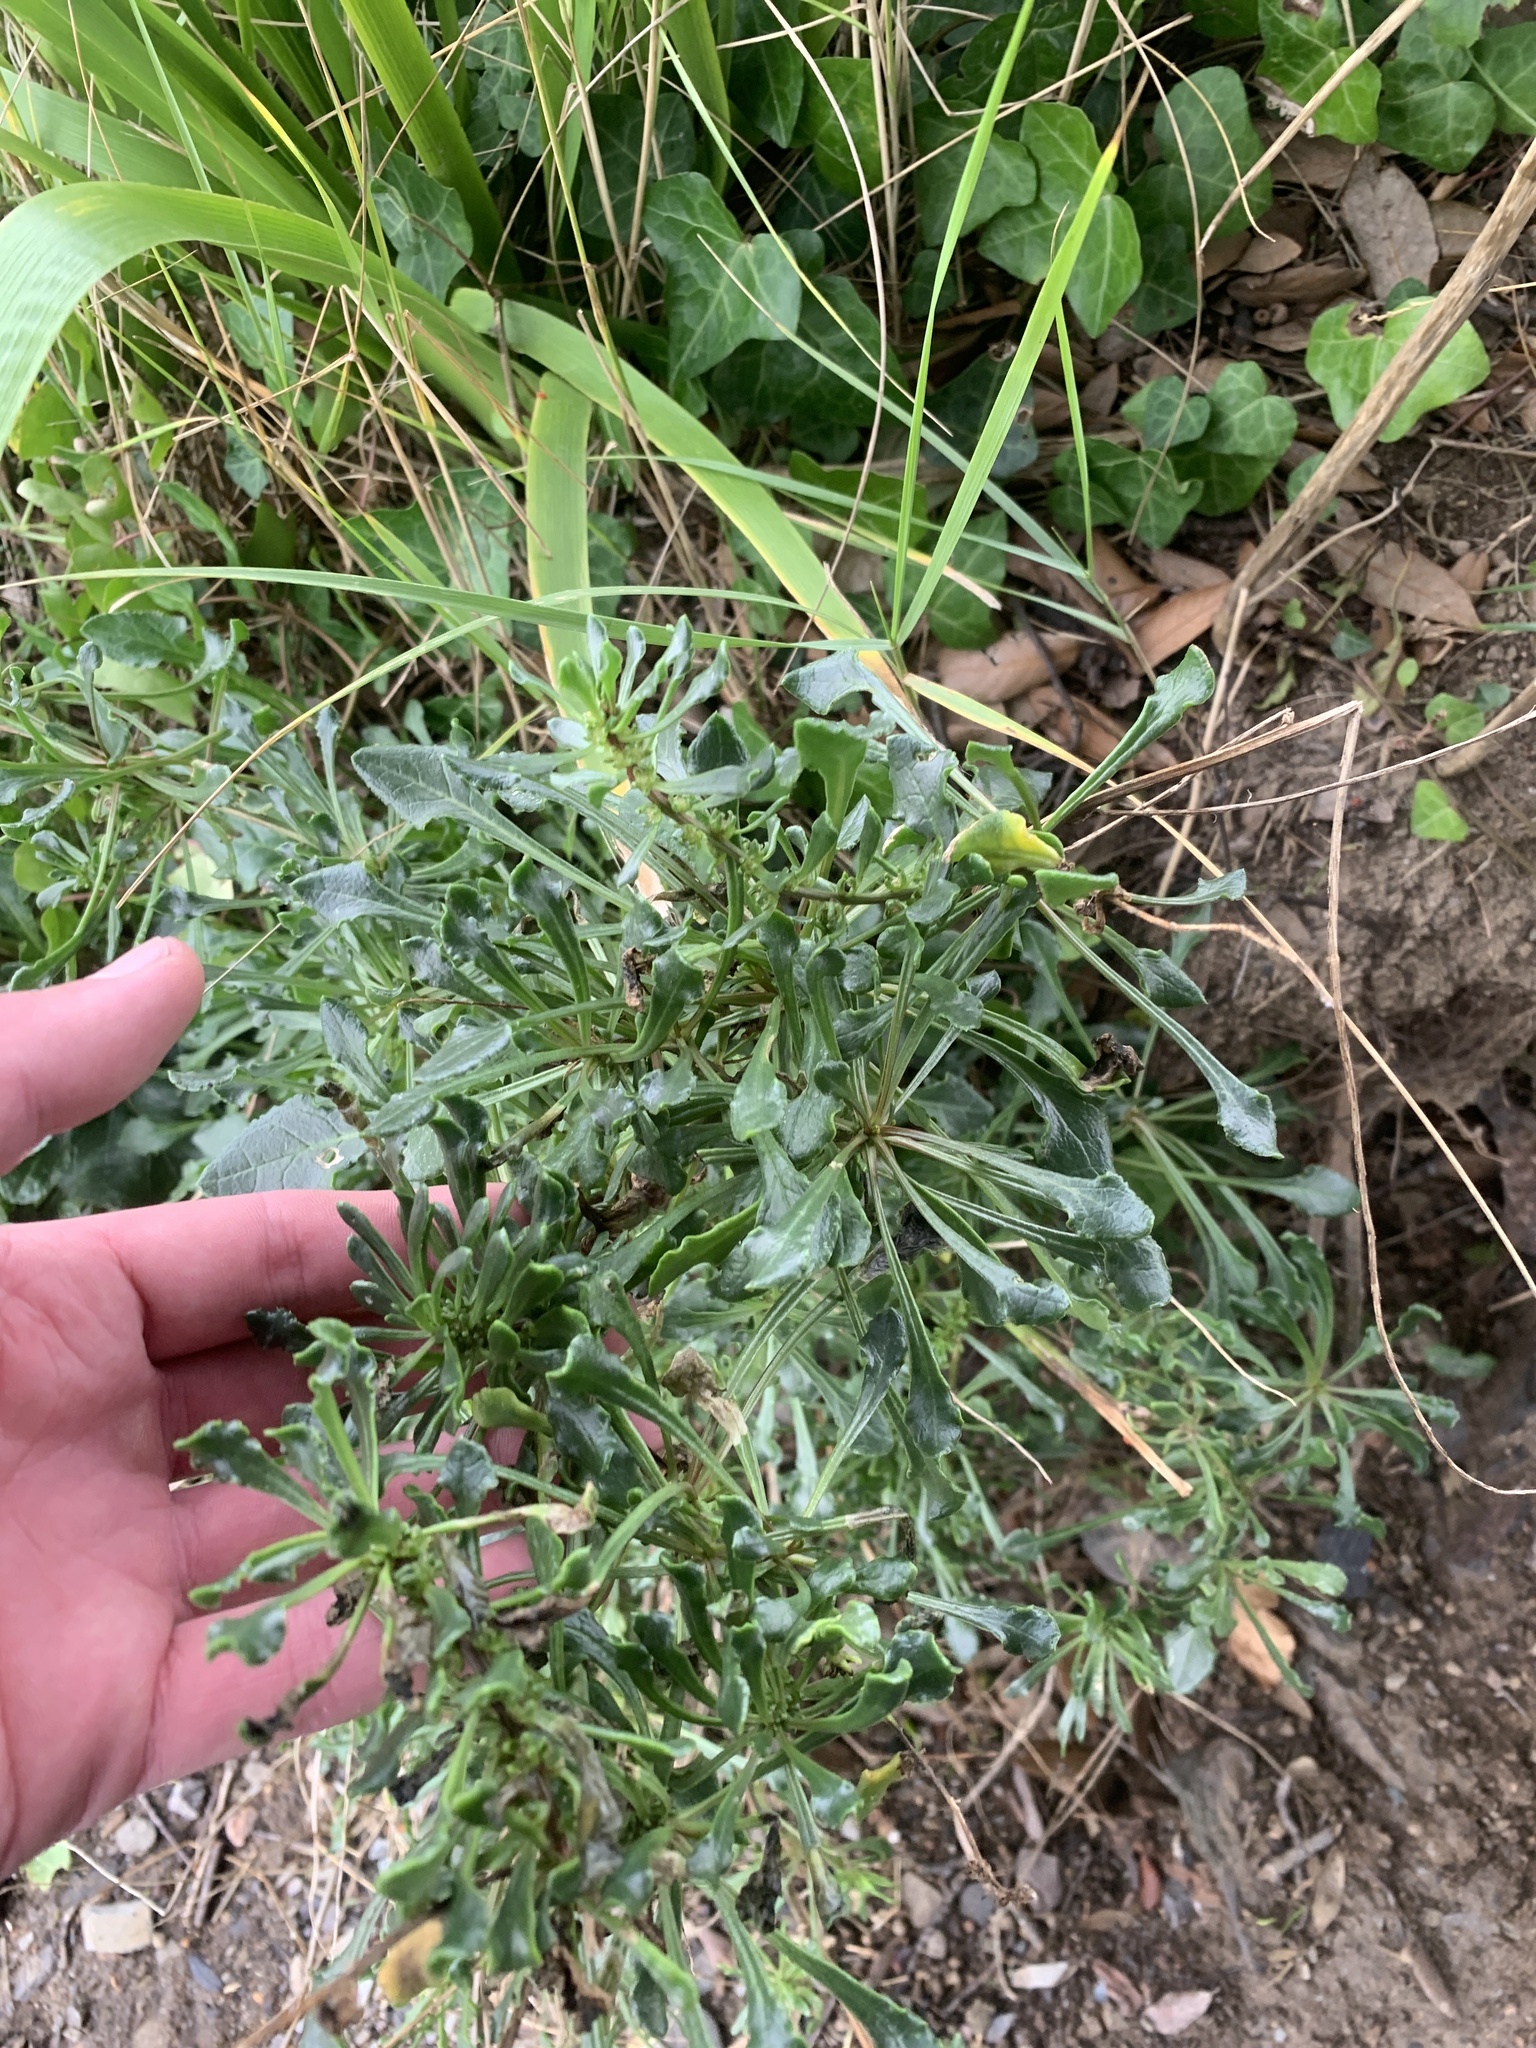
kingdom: Plantae
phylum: Tracheophyta
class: Magnoliopsida
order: Caryophyllales
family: Amaranthaceae
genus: Beta
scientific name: Beta vulgaris
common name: Beet
